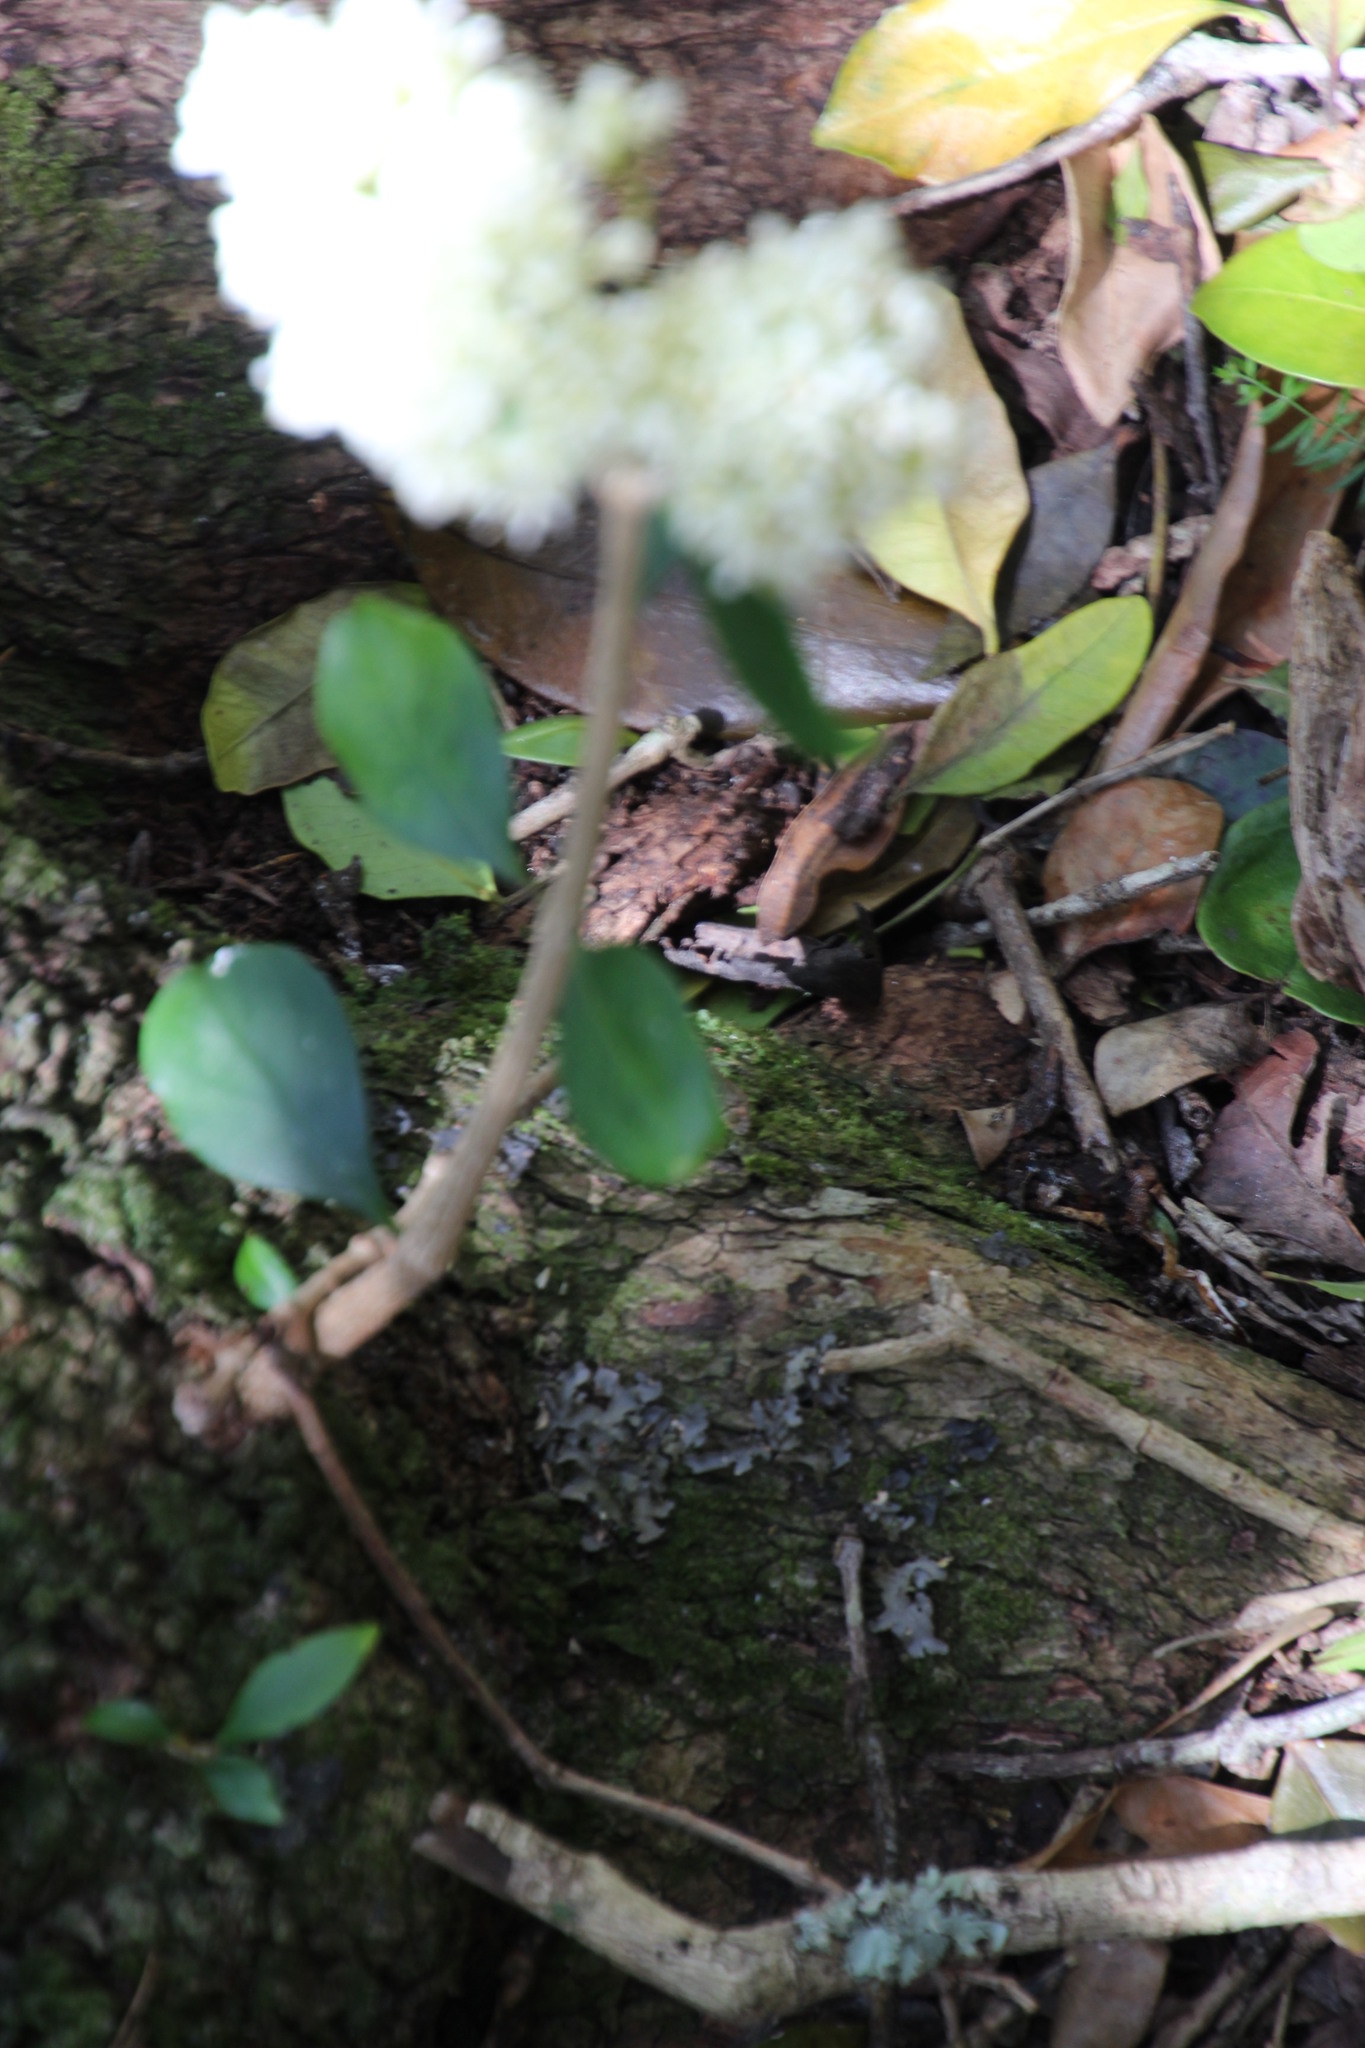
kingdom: Plantae
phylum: Tracheophyta
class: Magnoliopsida
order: Myrtales
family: Penaeaceae
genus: Olinia
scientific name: Olinia ventosa
